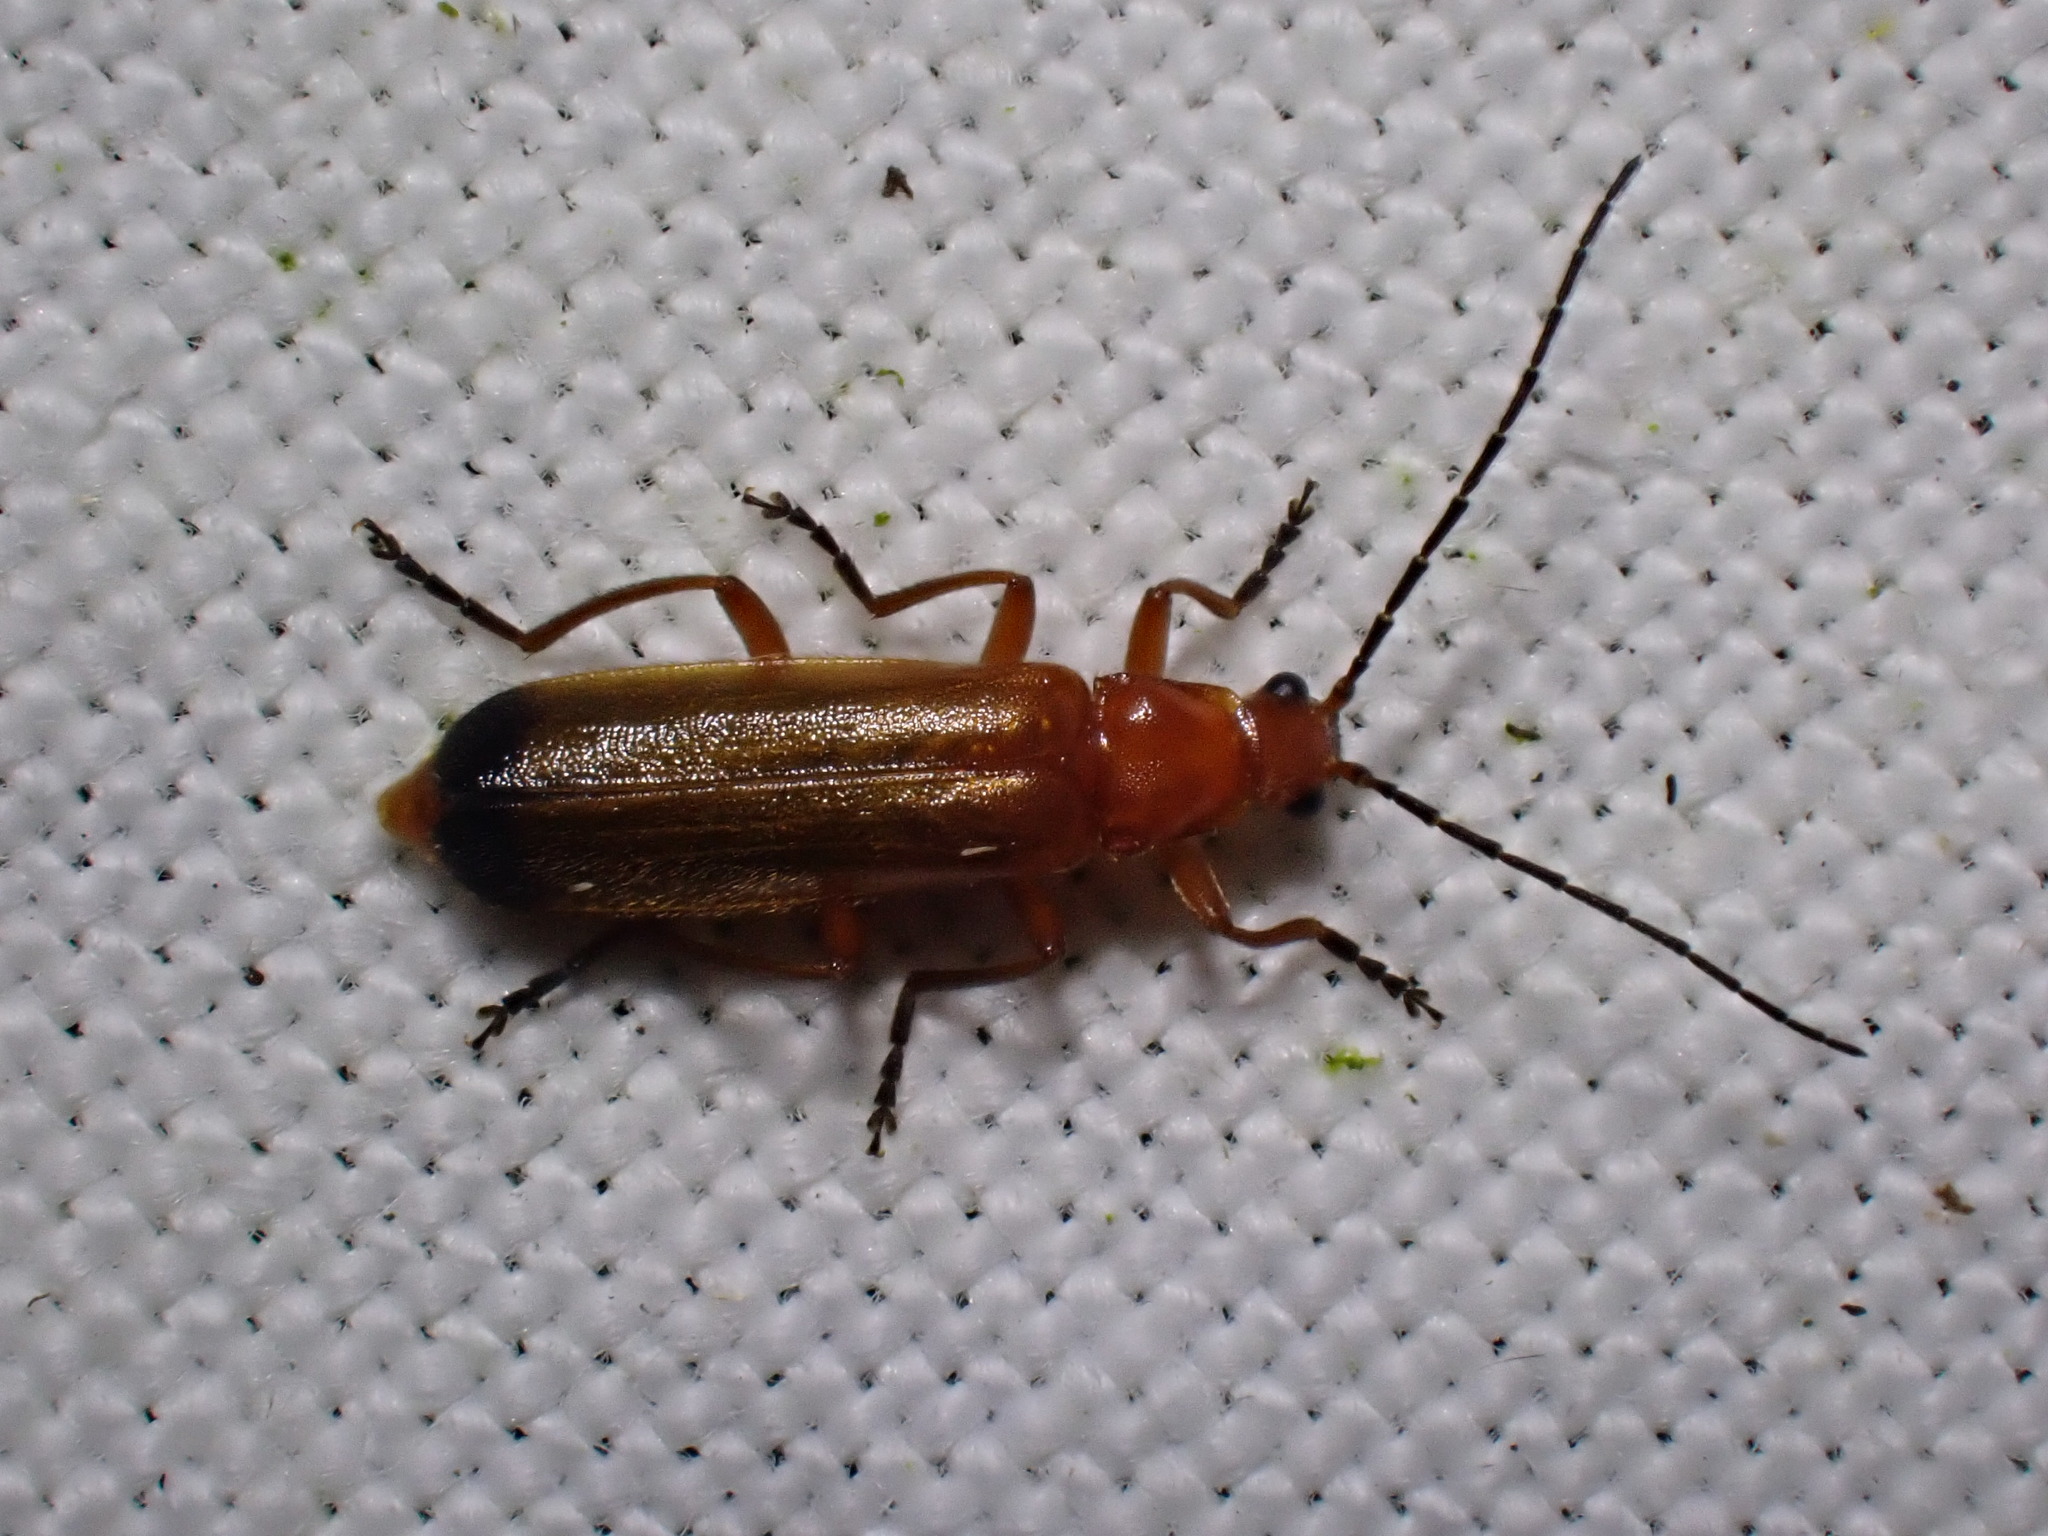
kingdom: Animalia
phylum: Arthropoda
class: Insecta
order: Coleoptera
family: Cantharidae
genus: Rhagonycha
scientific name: Rhagonycha fulva
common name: Common red soldier beetle
